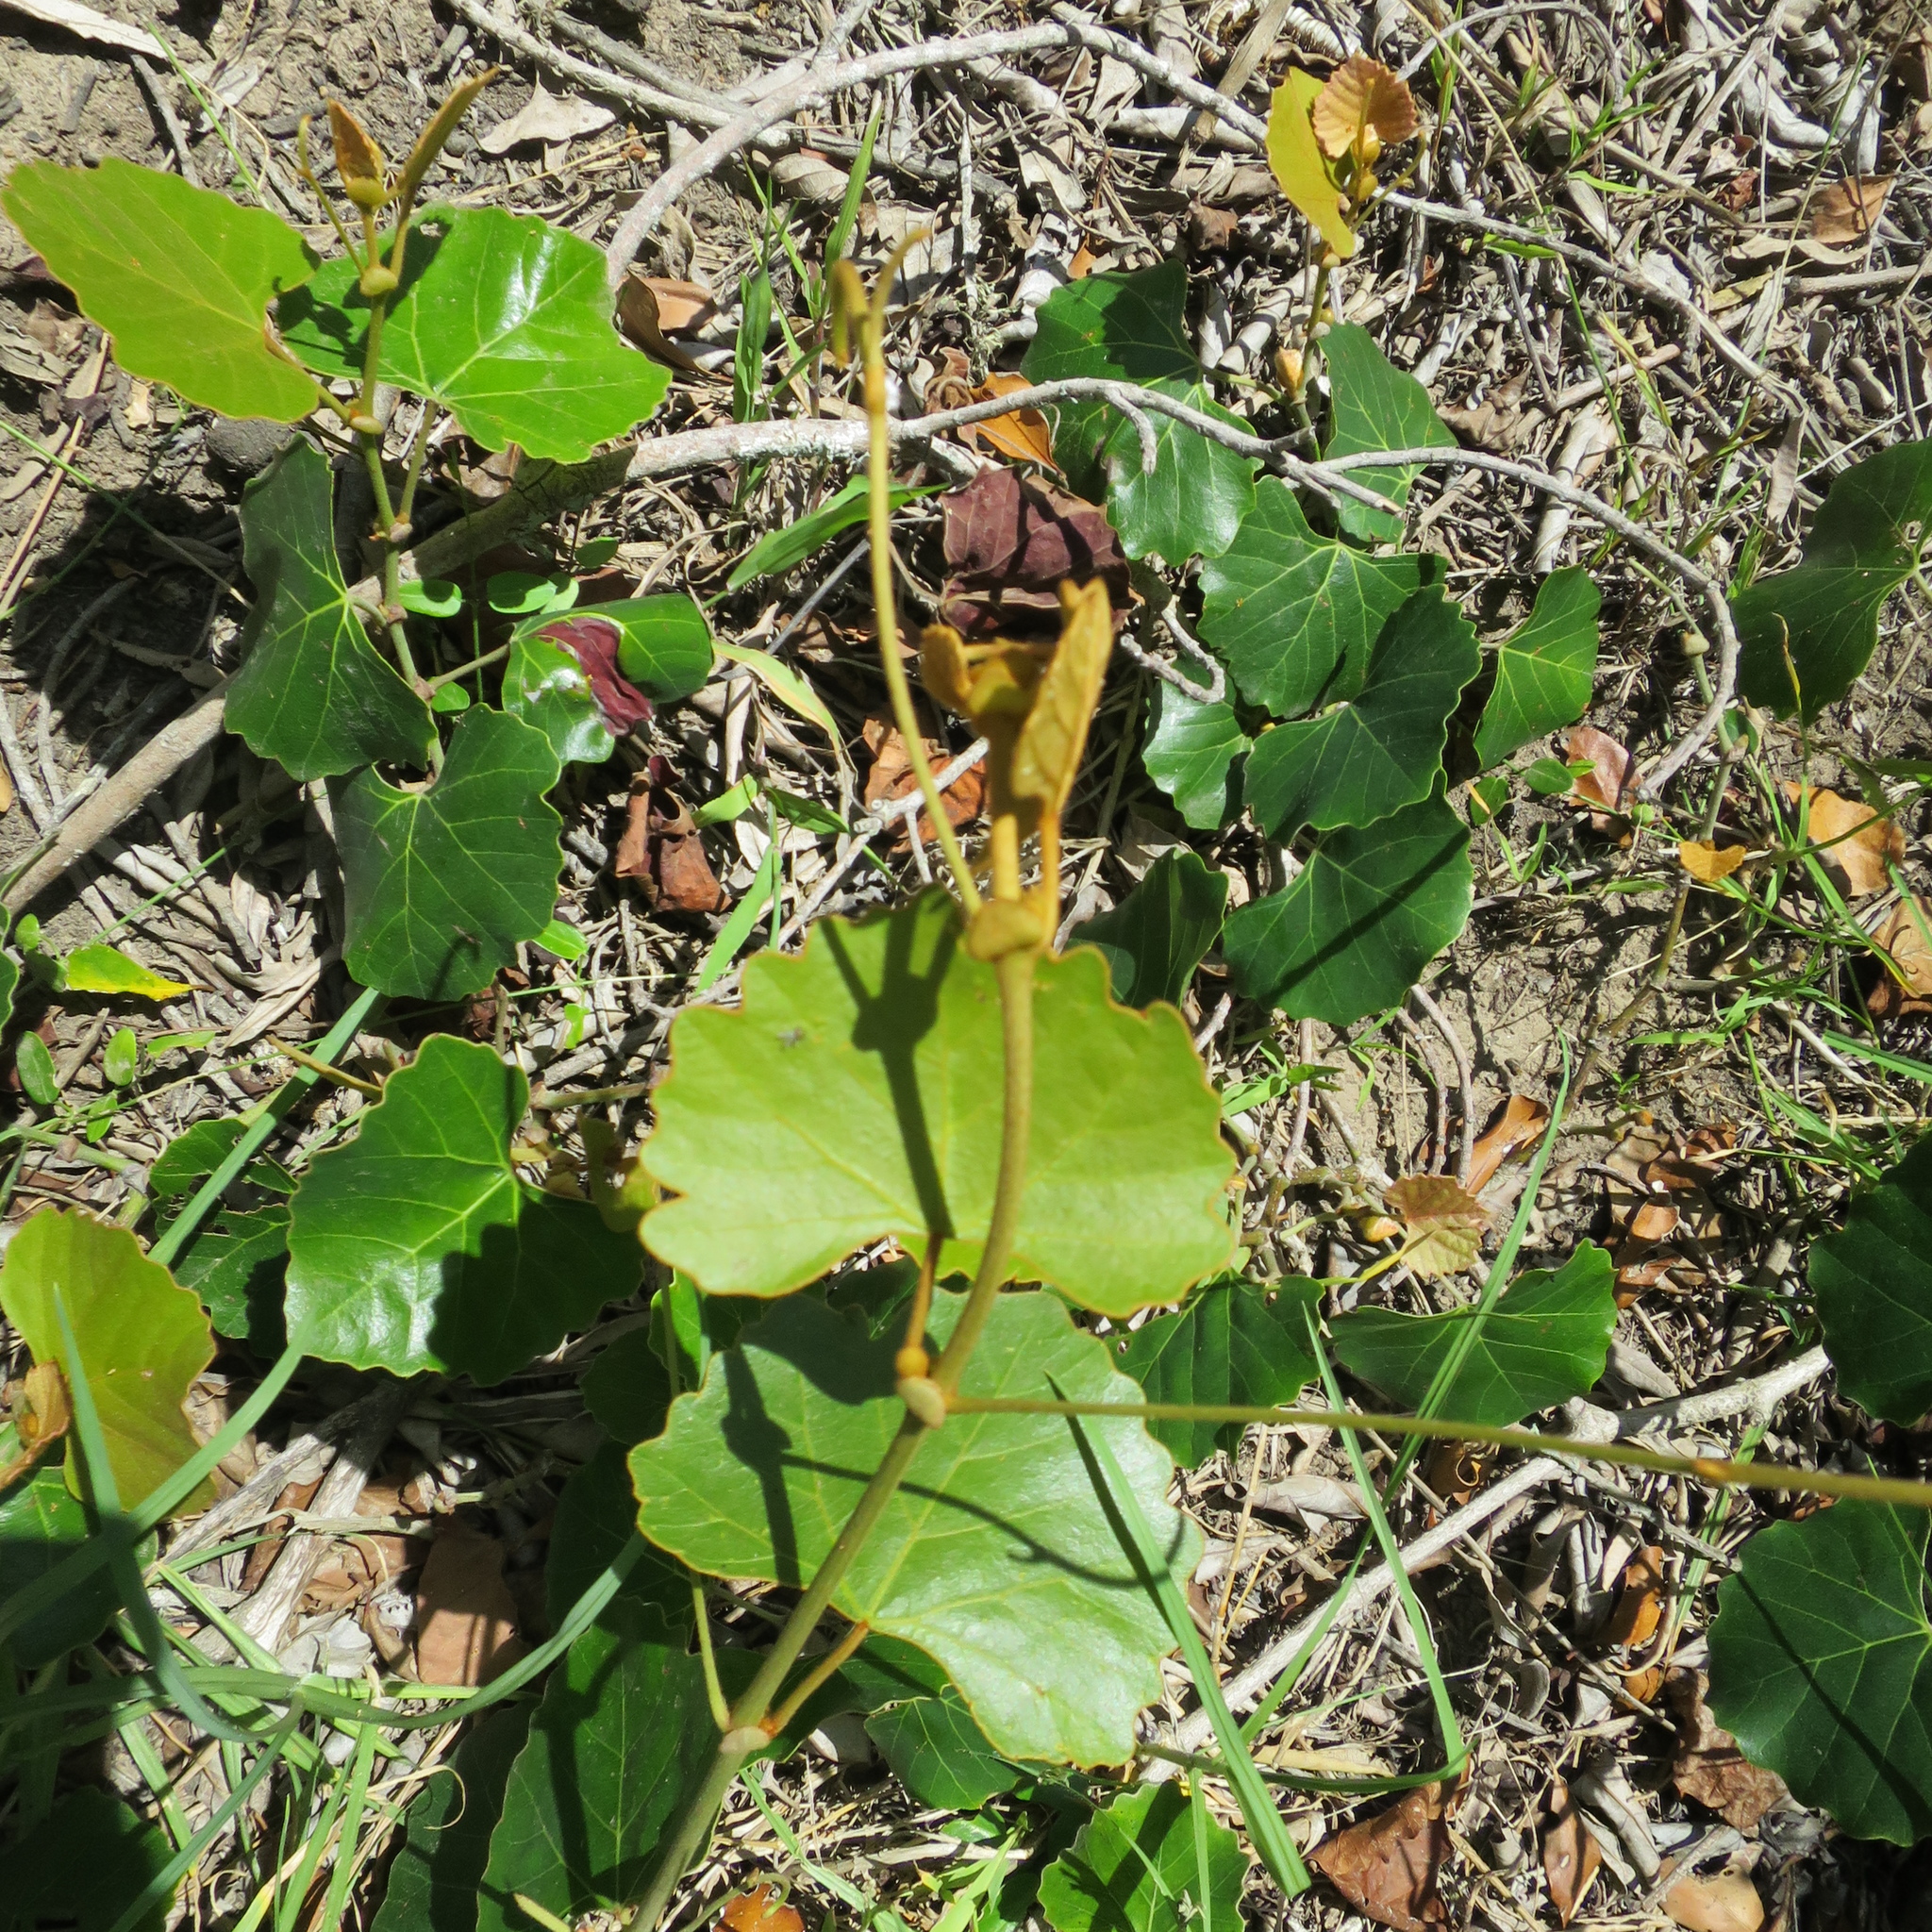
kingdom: Plantae
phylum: Tracheophyta
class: Magnoliopsida
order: Vitales
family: Vitaceae
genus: Rhoicissus
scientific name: Rhoicissus tomentosa
